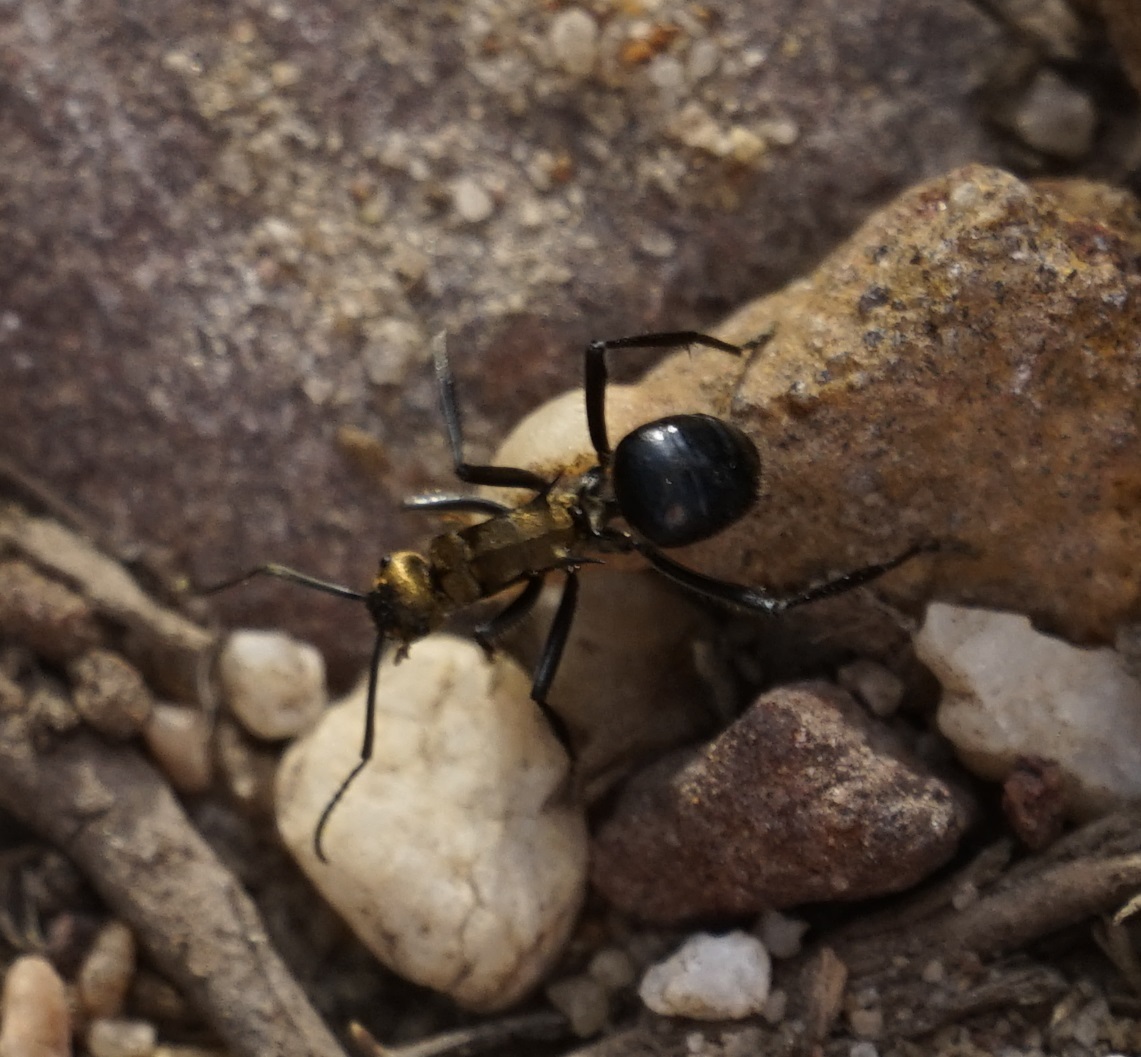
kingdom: Animalia
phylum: Arthropoda
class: Insecta
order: Hymenoptera
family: Formicidae
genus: Polyrhachis
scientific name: Polyrhachis semiaurata
